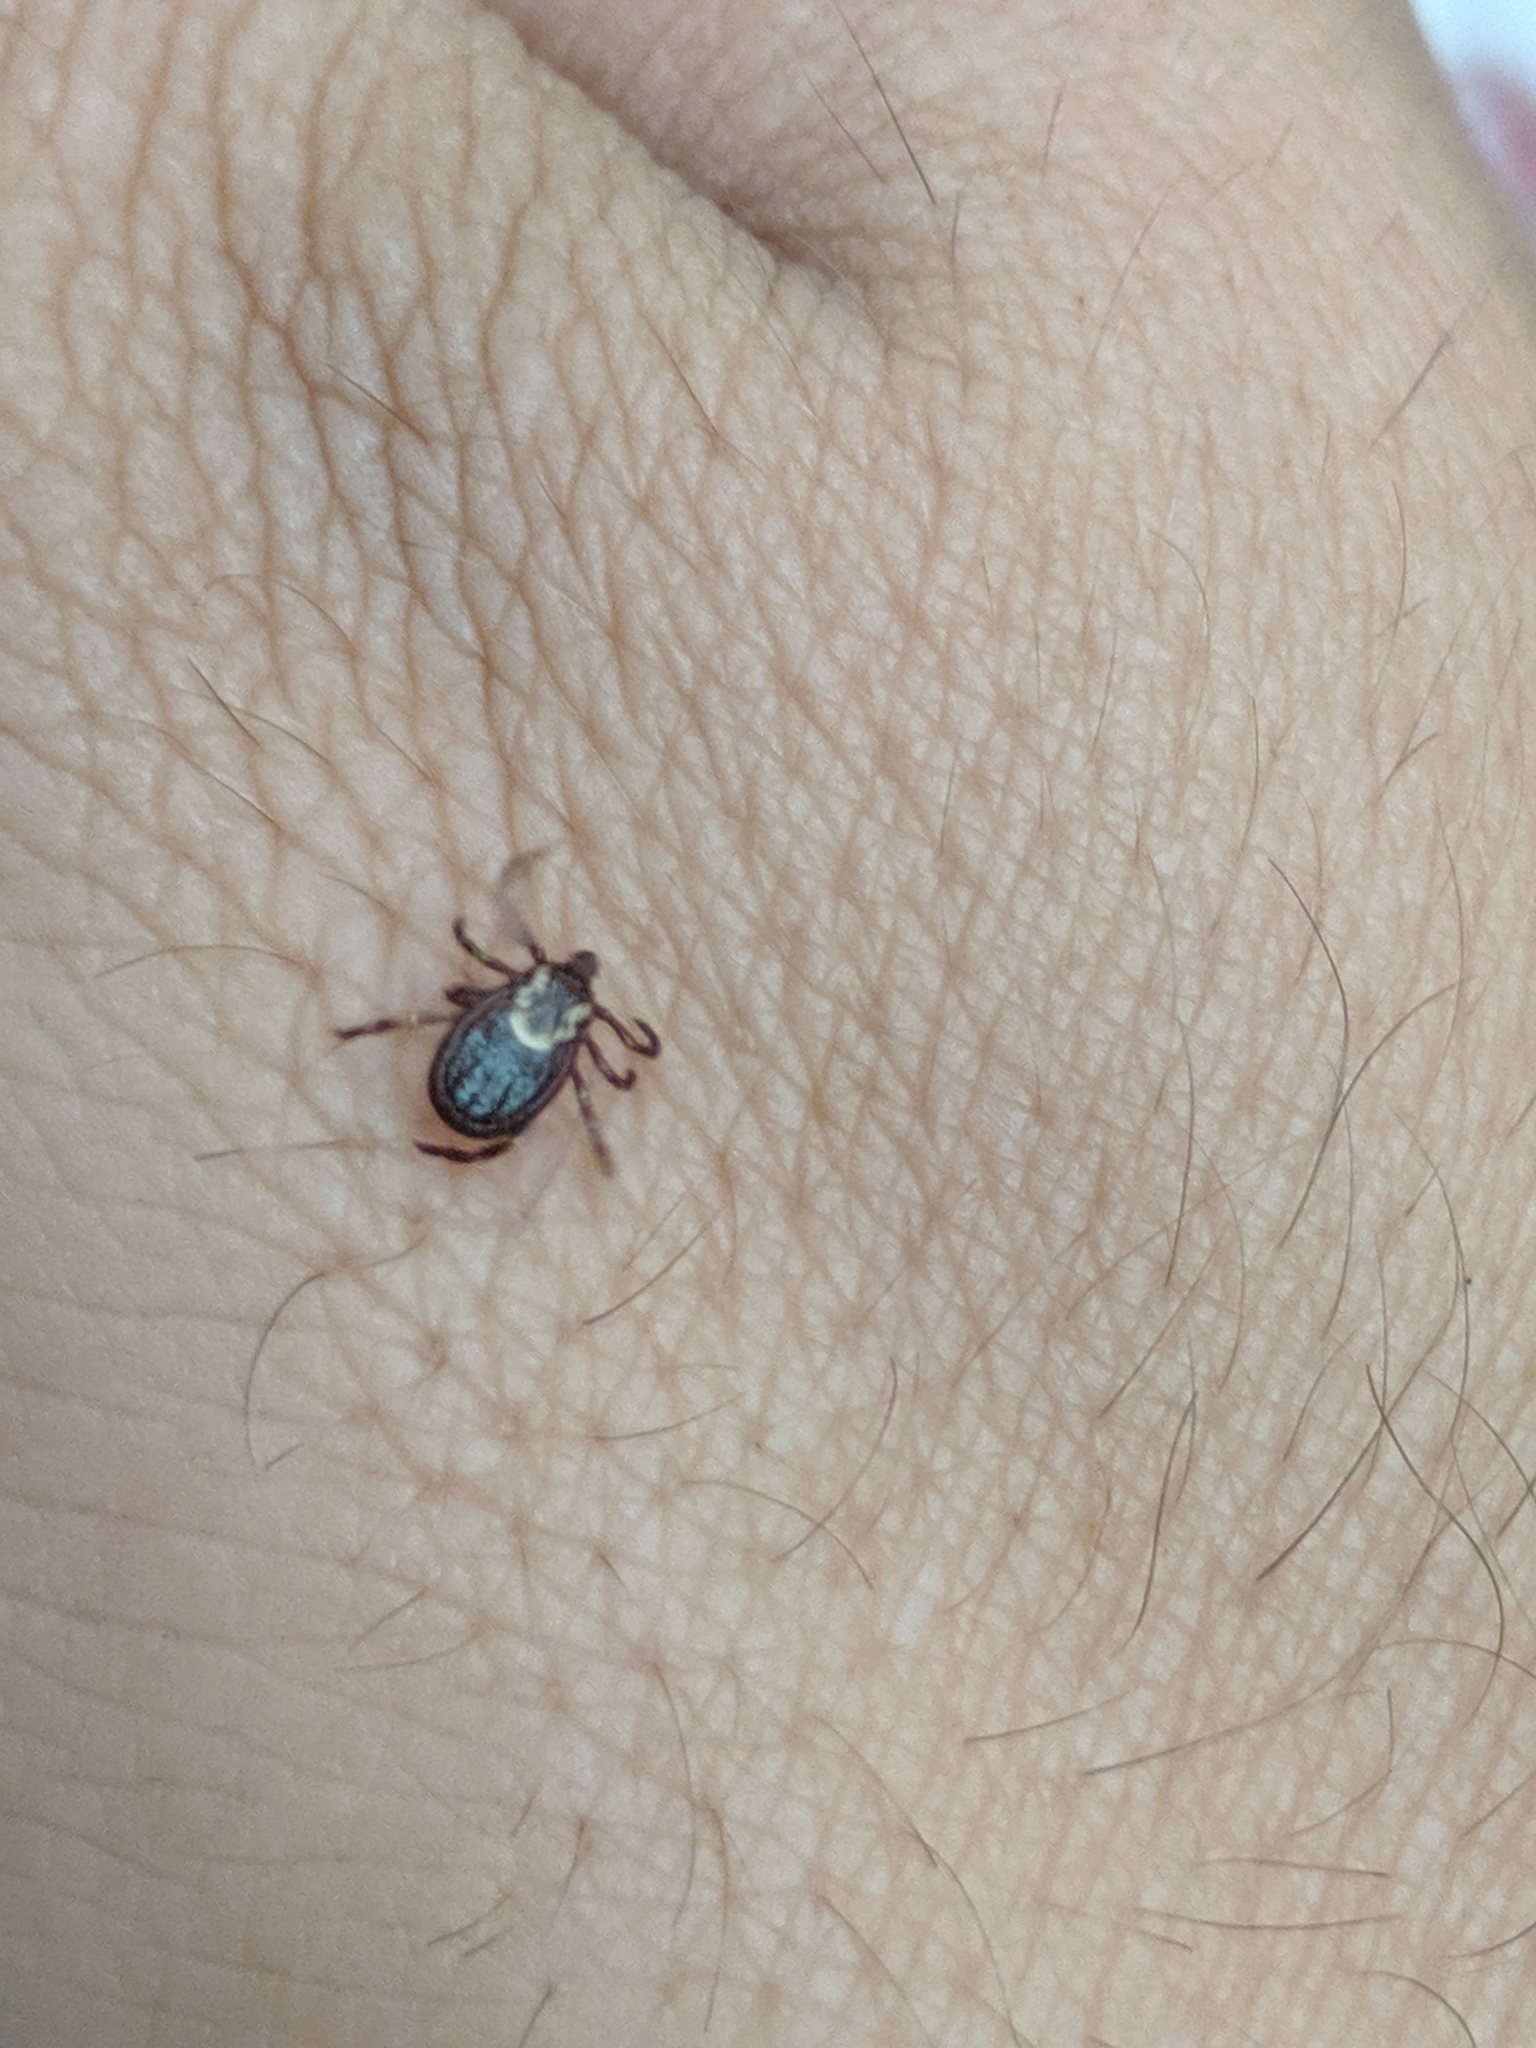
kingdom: Animalia
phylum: Arthropoda
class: Arachnida
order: Ixodida
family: Ixodidae
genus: Dermacentor
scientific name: Dermacentor variabilis
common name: American dog tick
